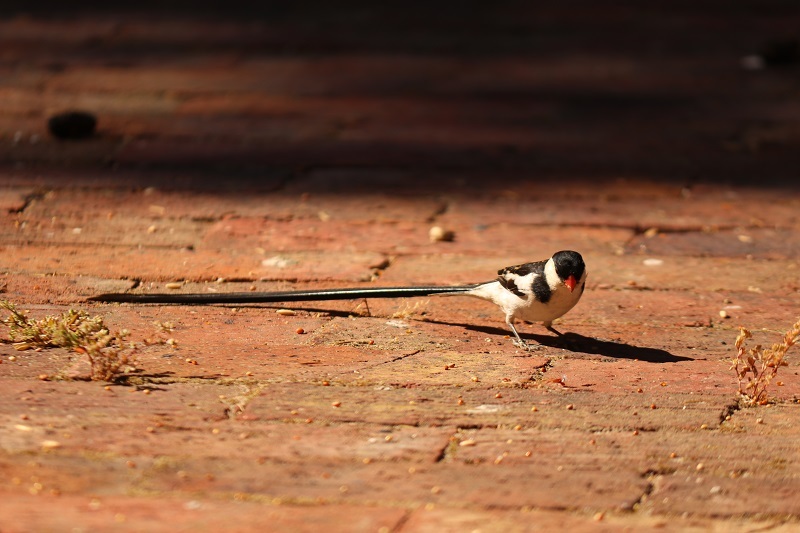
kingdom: Animalia
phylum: Chordata
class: Aves
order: Passeriformes
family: Viduidae
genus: Vidua
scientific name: Vidua macroura
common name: Pin-tailed whydah
